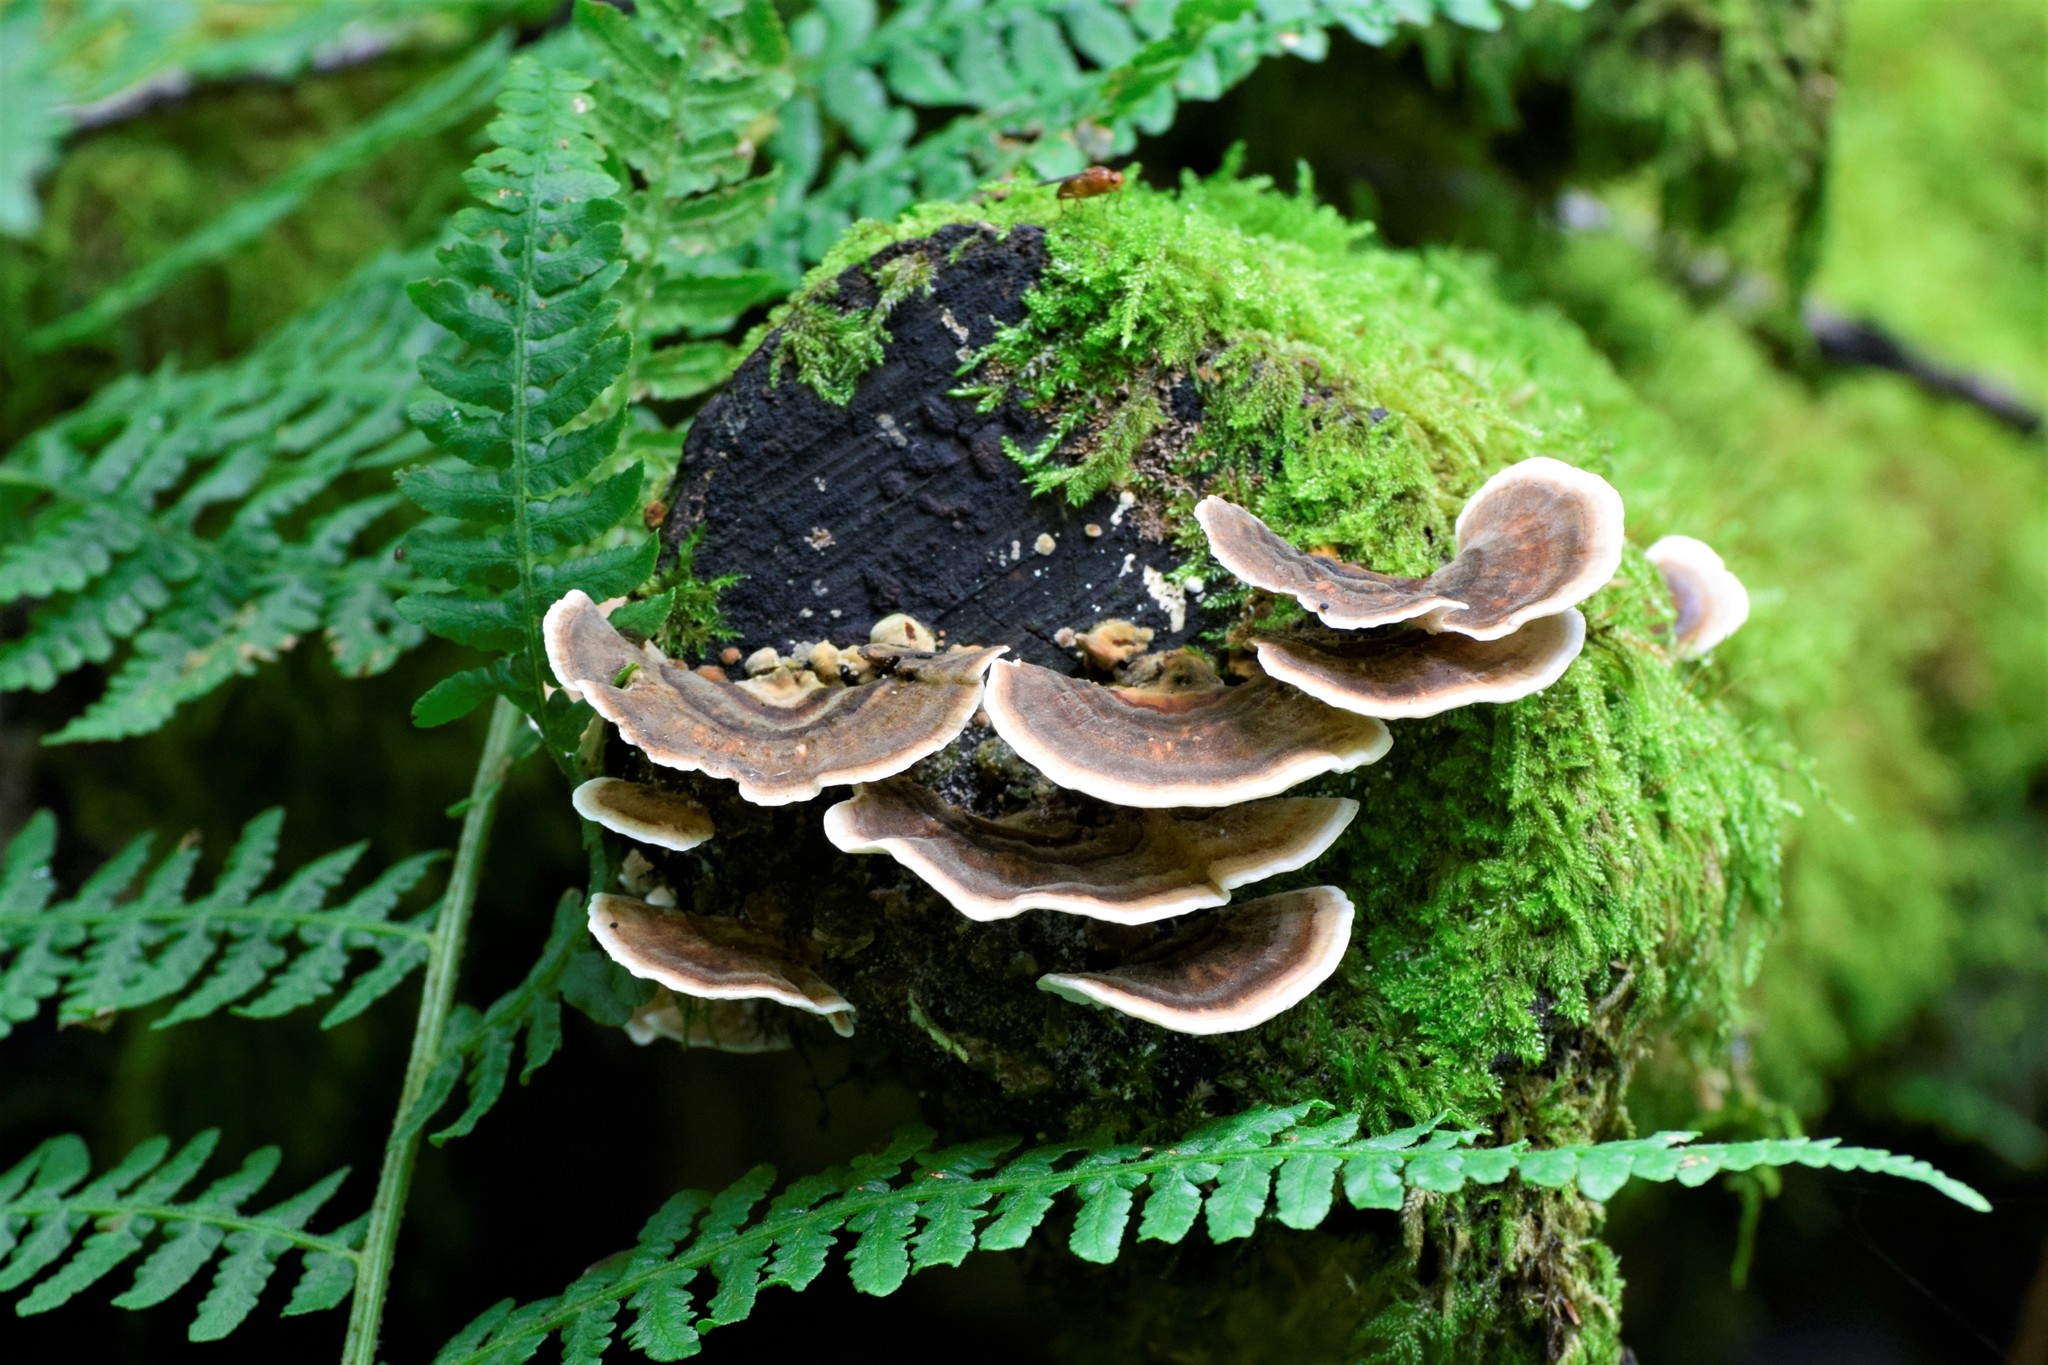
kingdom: Fungi
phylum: Basidiomycota
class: Agaricomycetes
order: Polyporales
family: Polyporaceae
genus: Trametes
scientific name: Trametes versicolor
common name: Turkeytail
